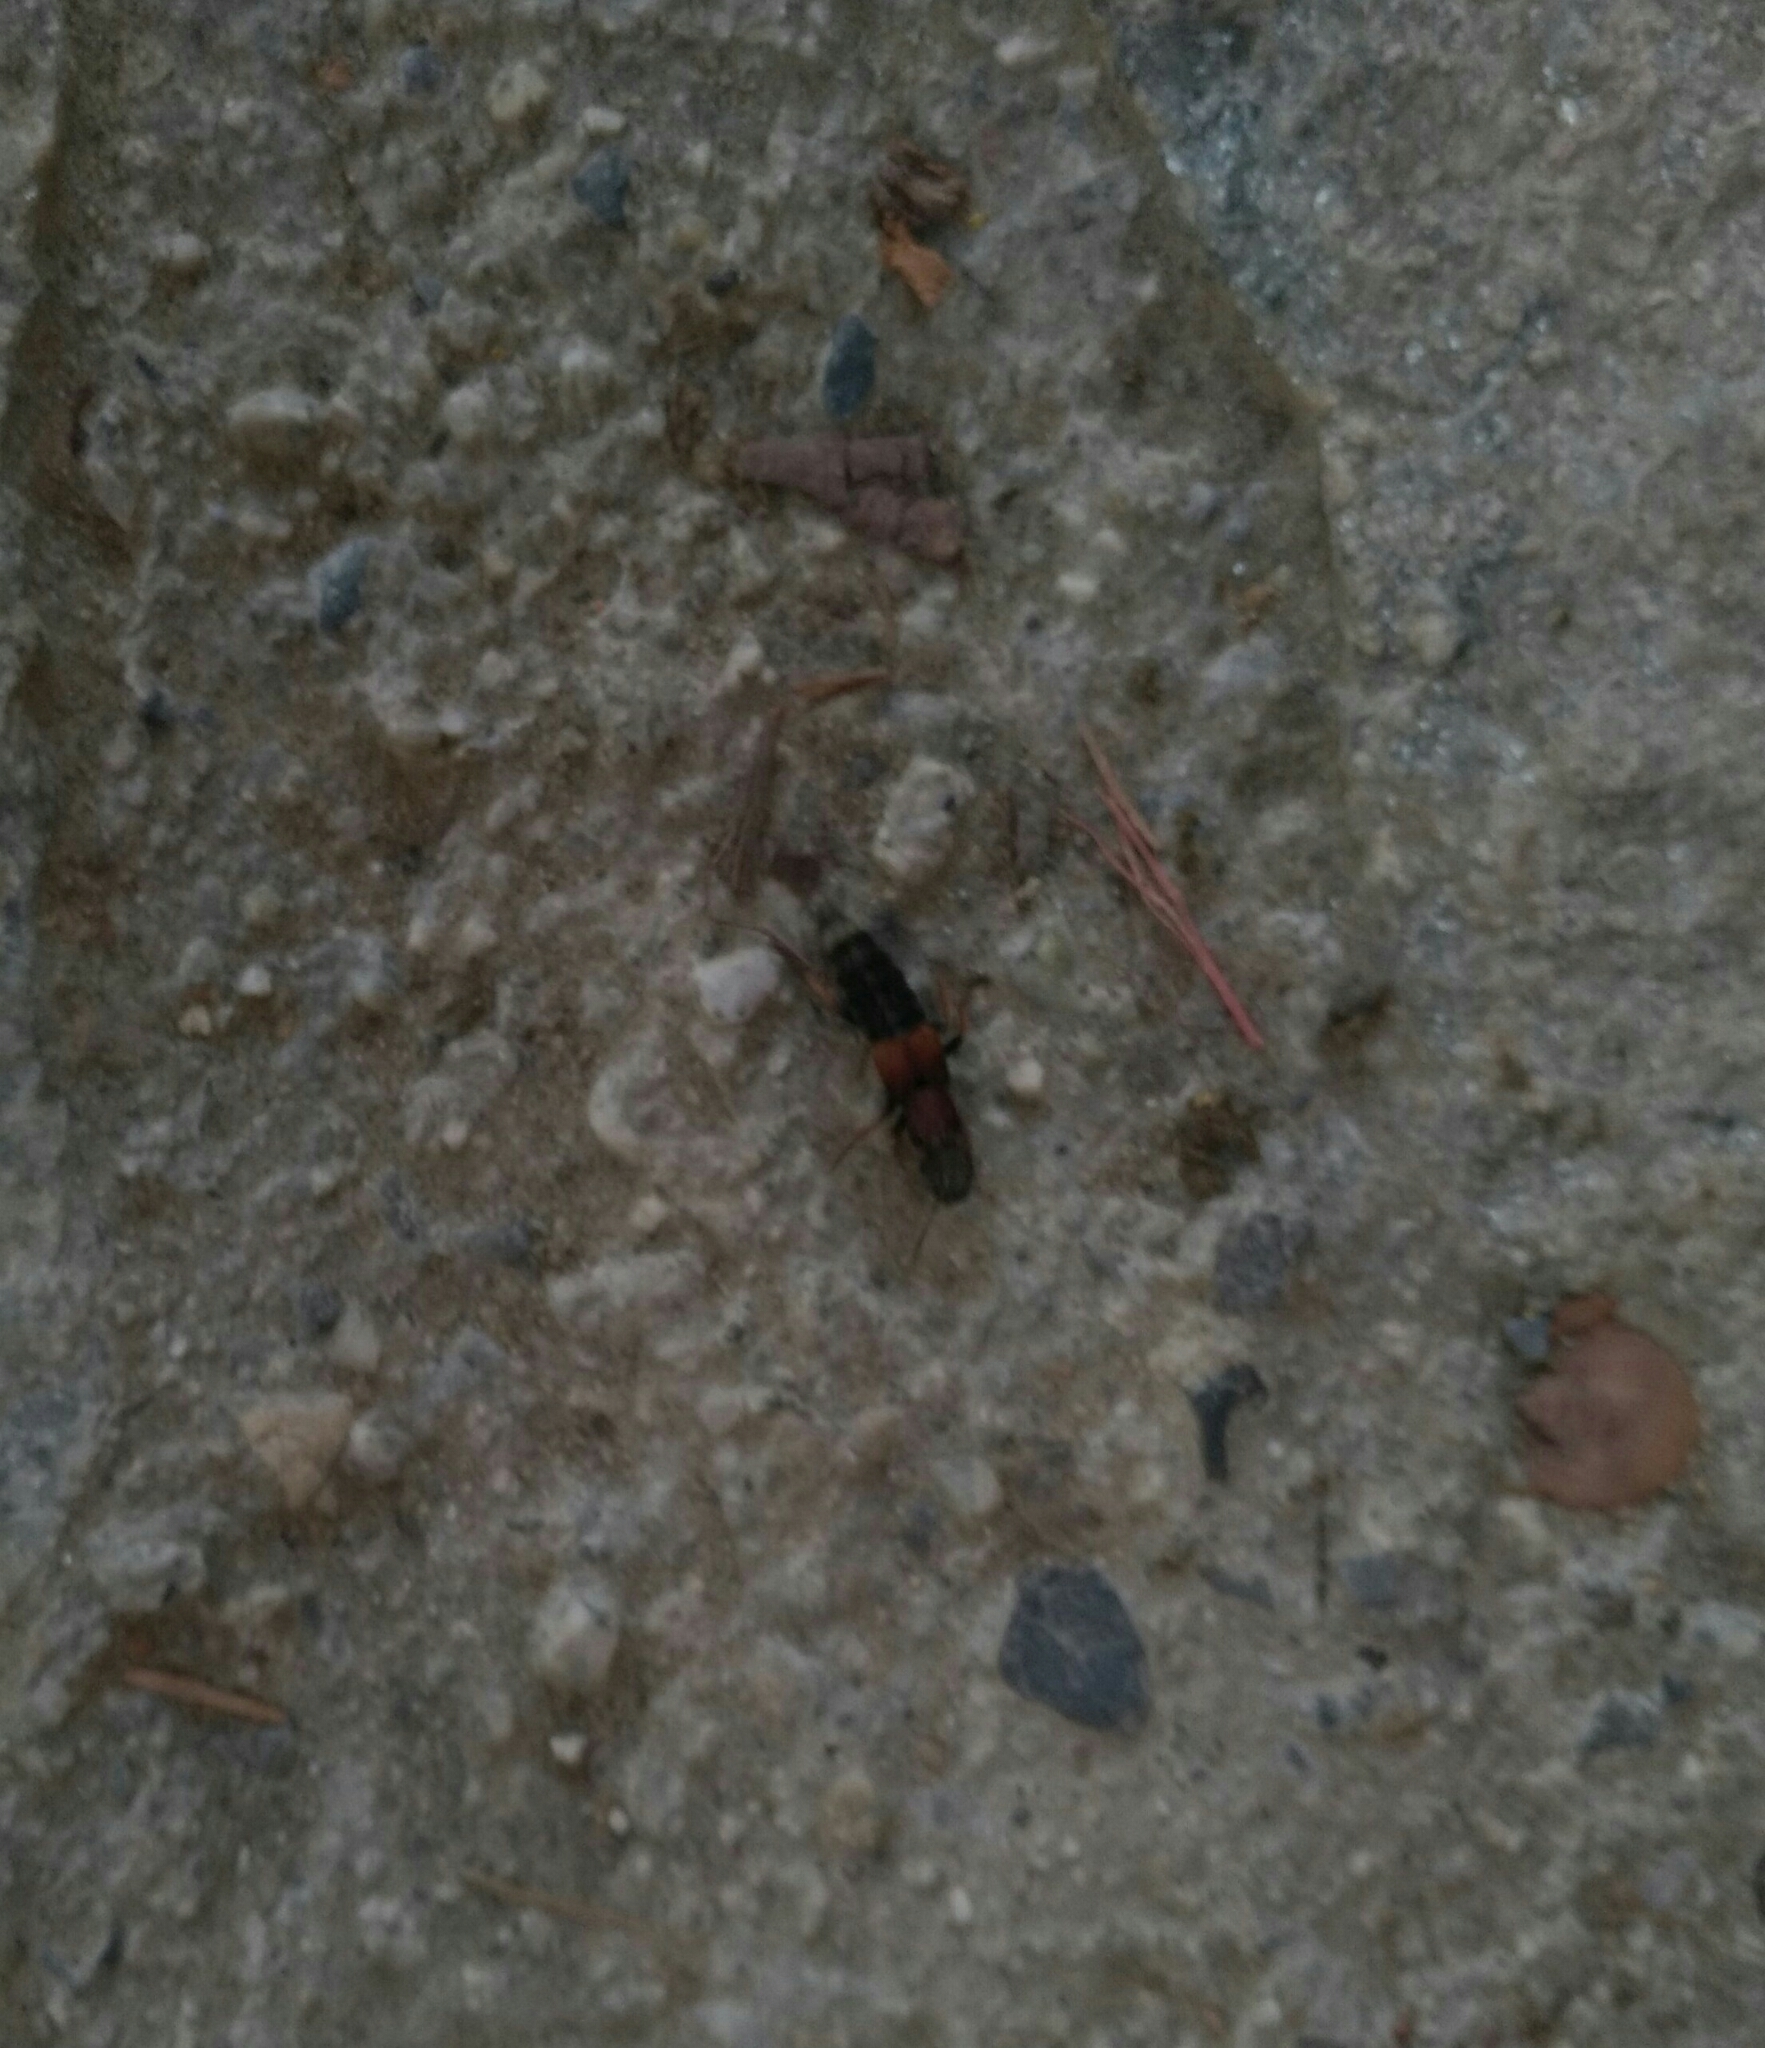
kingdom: Animalia
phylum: Arthropoda
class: Insecta
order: Coleoptera
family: Staphylinidae
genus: Dinothenarus
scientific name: Dinothenarus fossor
